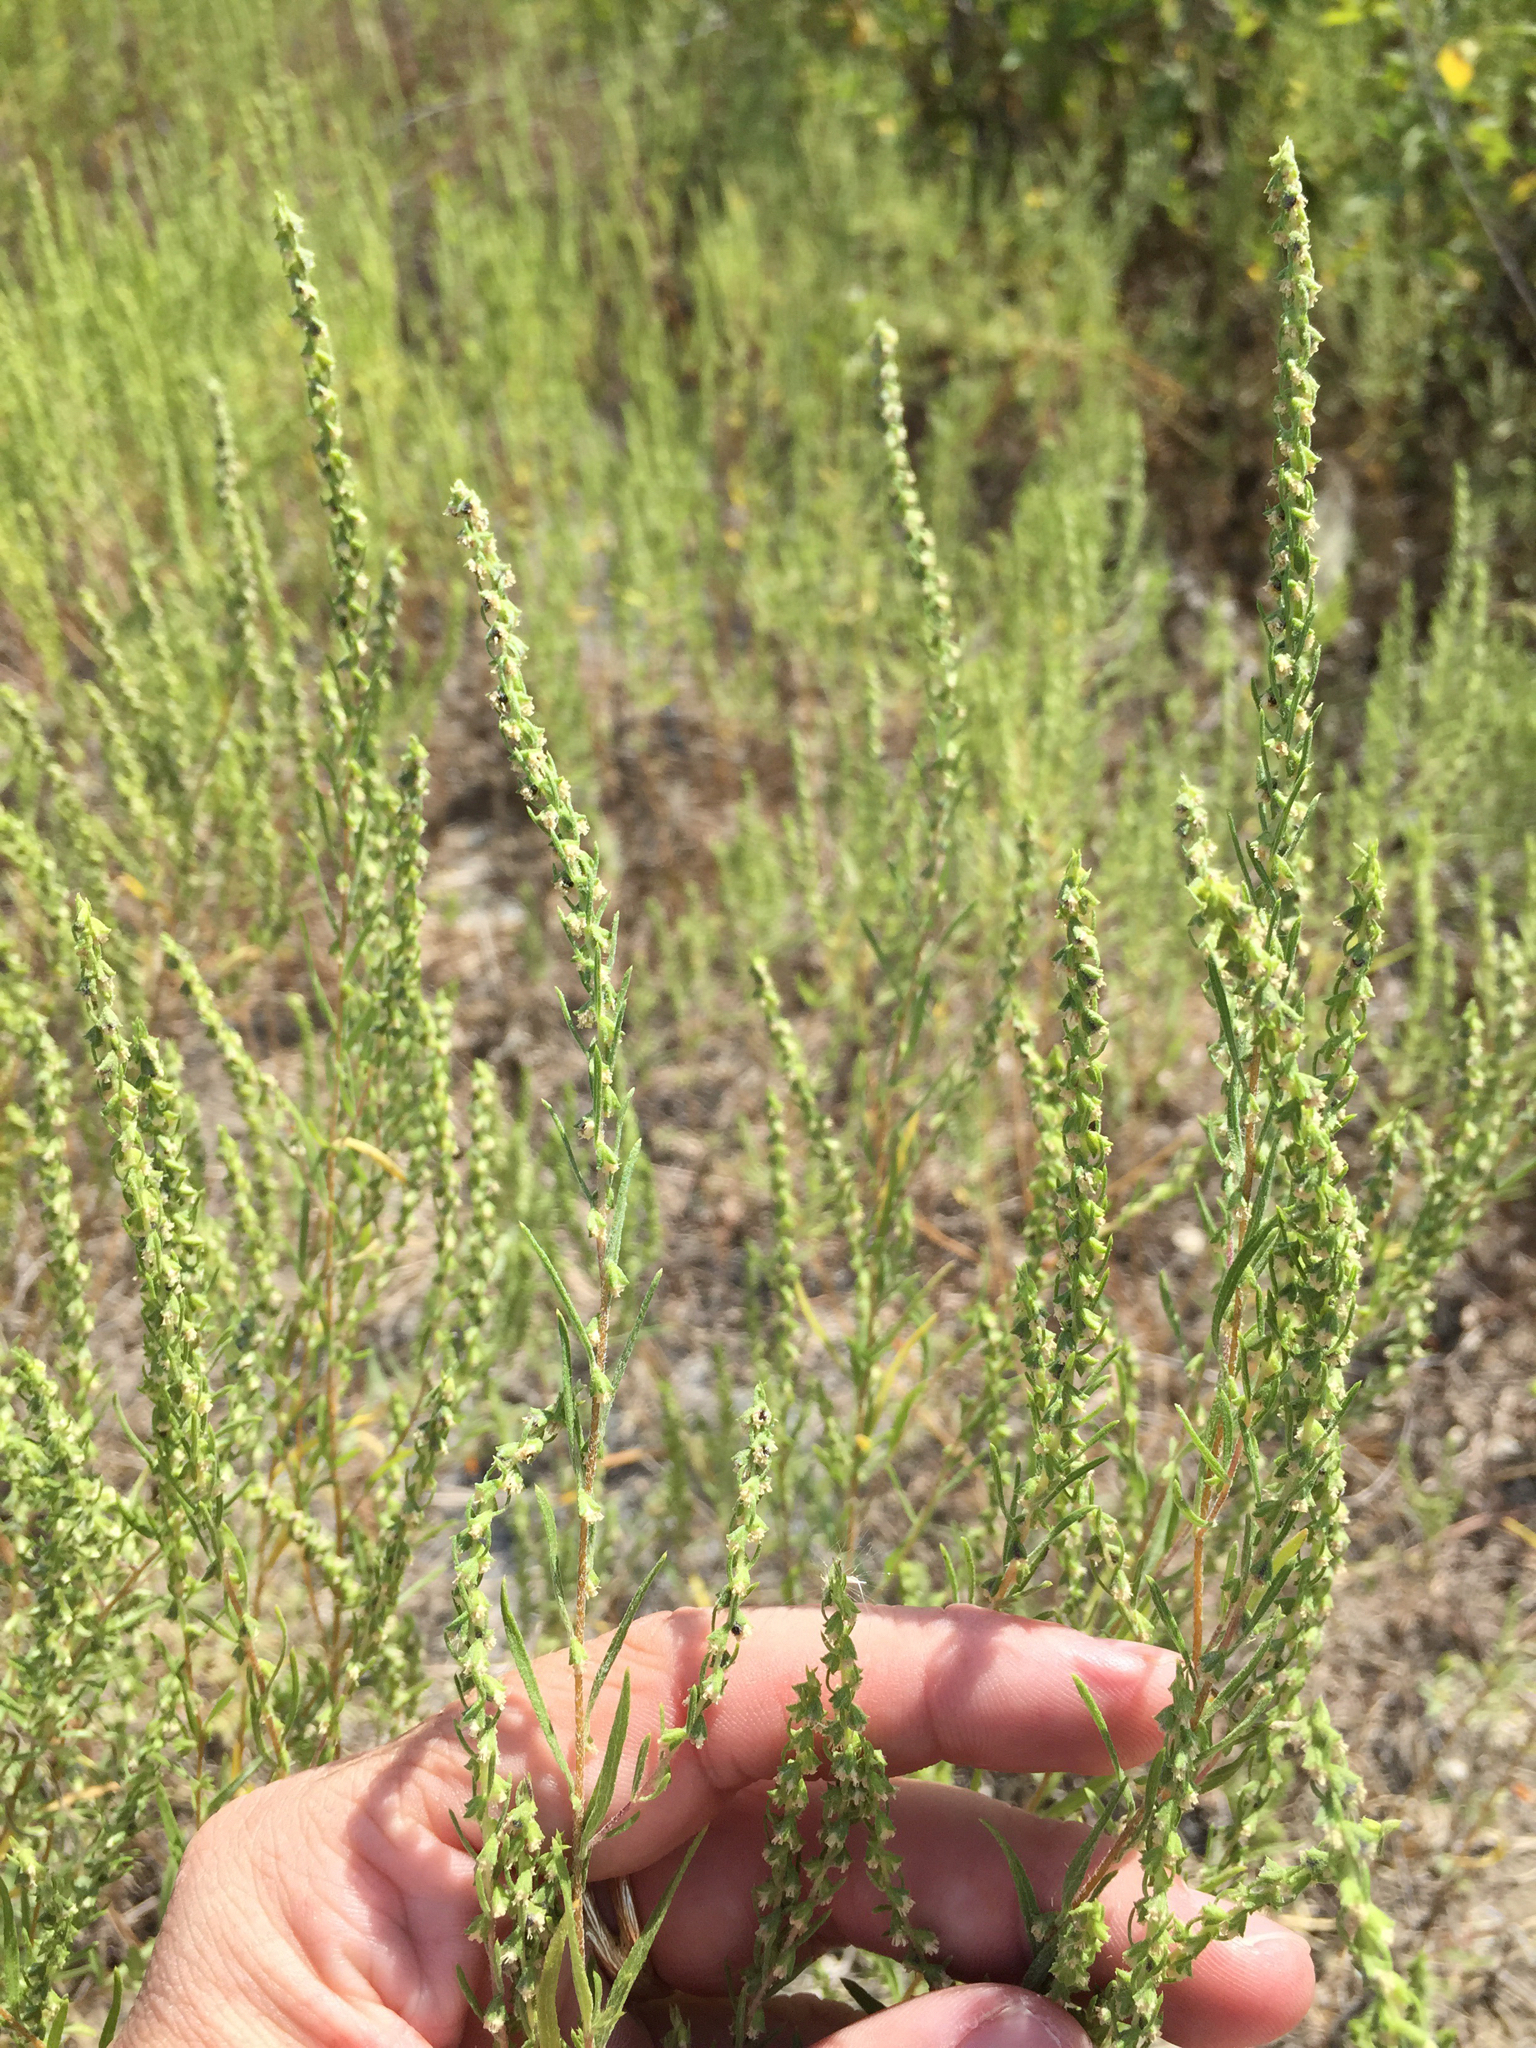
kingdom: Plantae
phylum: Tracheophyta
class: Magnoliopsida
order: Asterales
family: Asteraceae
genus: Iva
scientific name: Iva asperifolia
